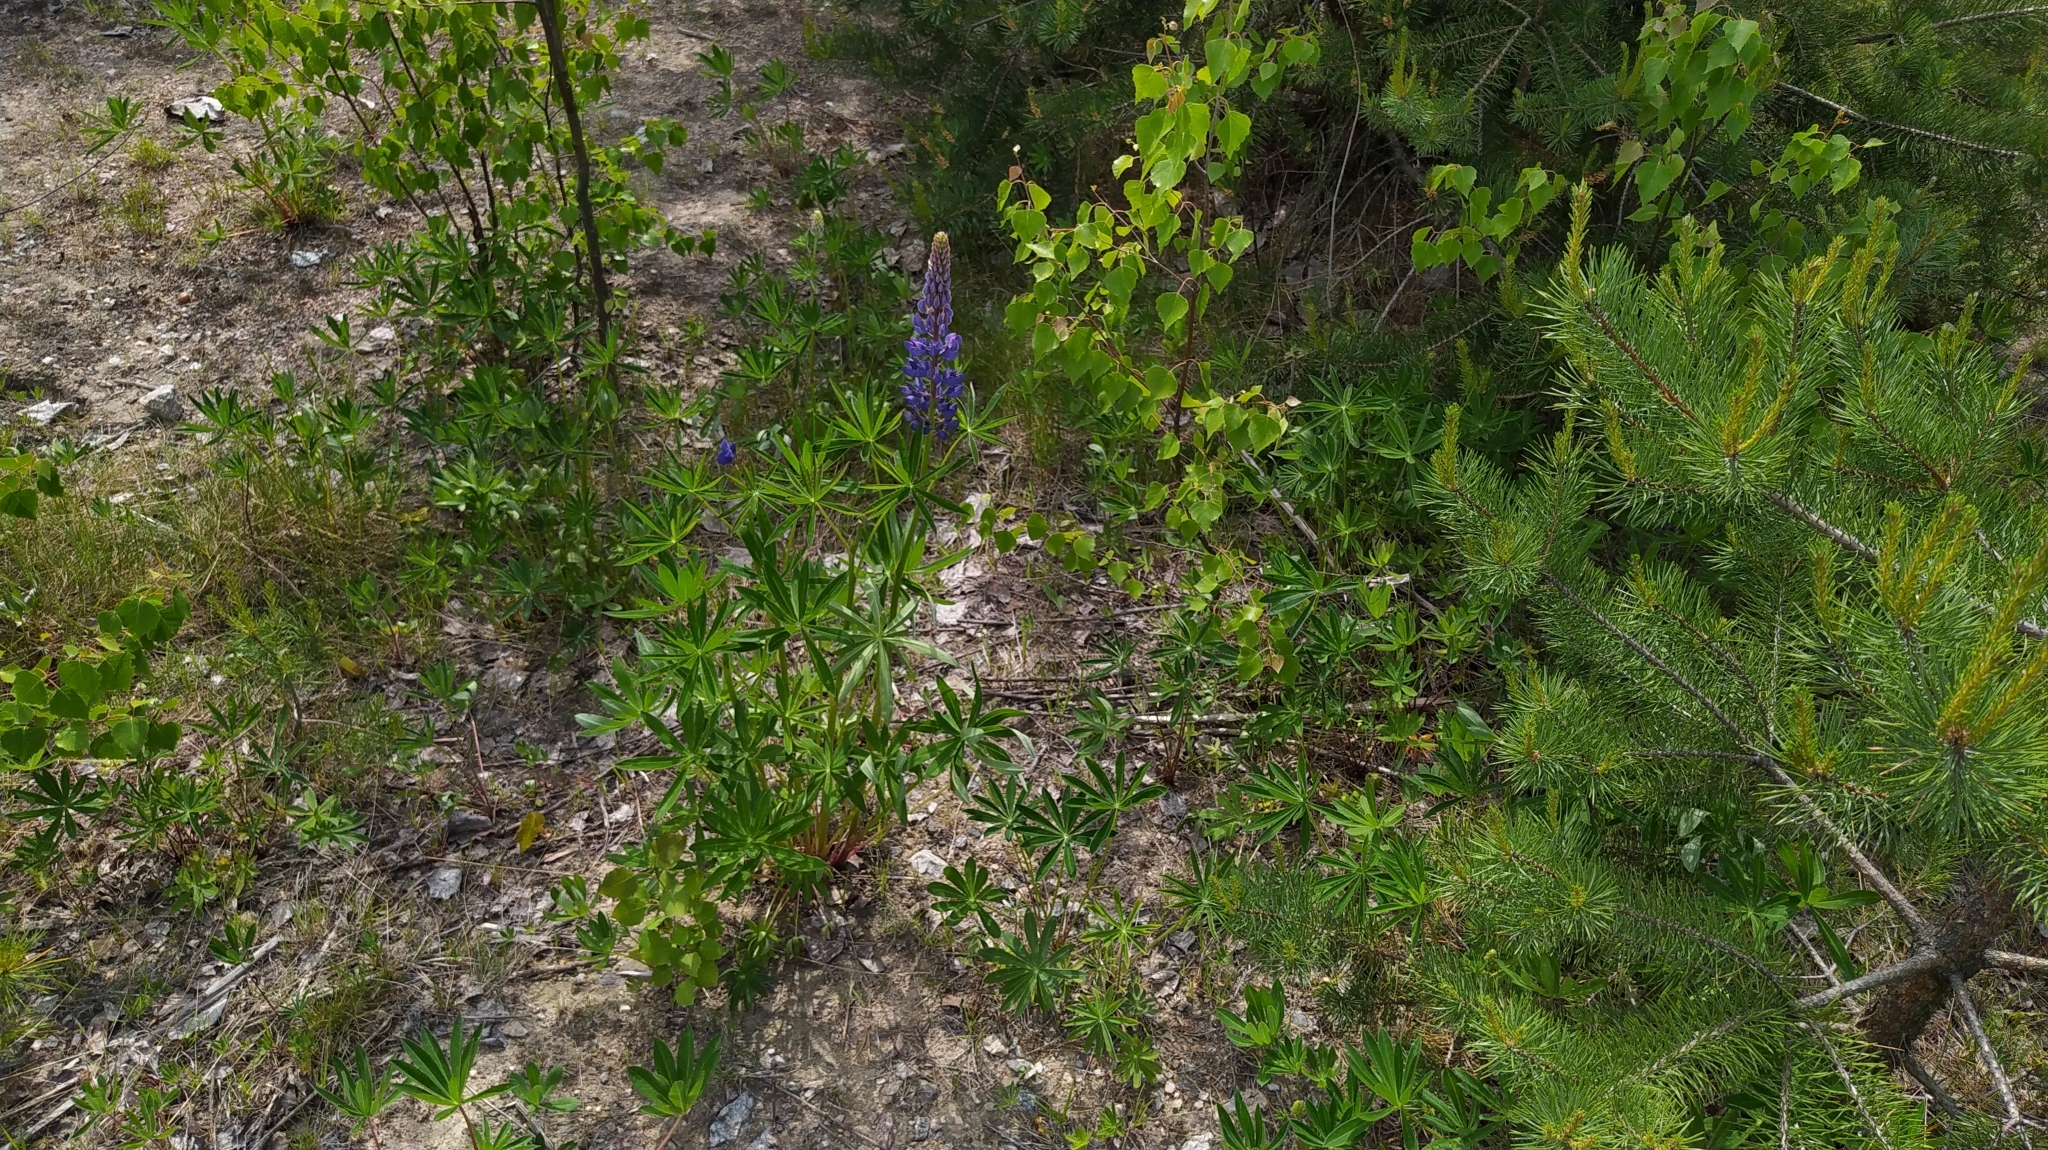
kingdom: Plantae
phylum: Tracheophyta
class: Magnoliopsida
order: Fabales
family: Fabaceae
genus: Lupinus
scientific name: Lupinus polyphyllus
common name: Garden lupin
